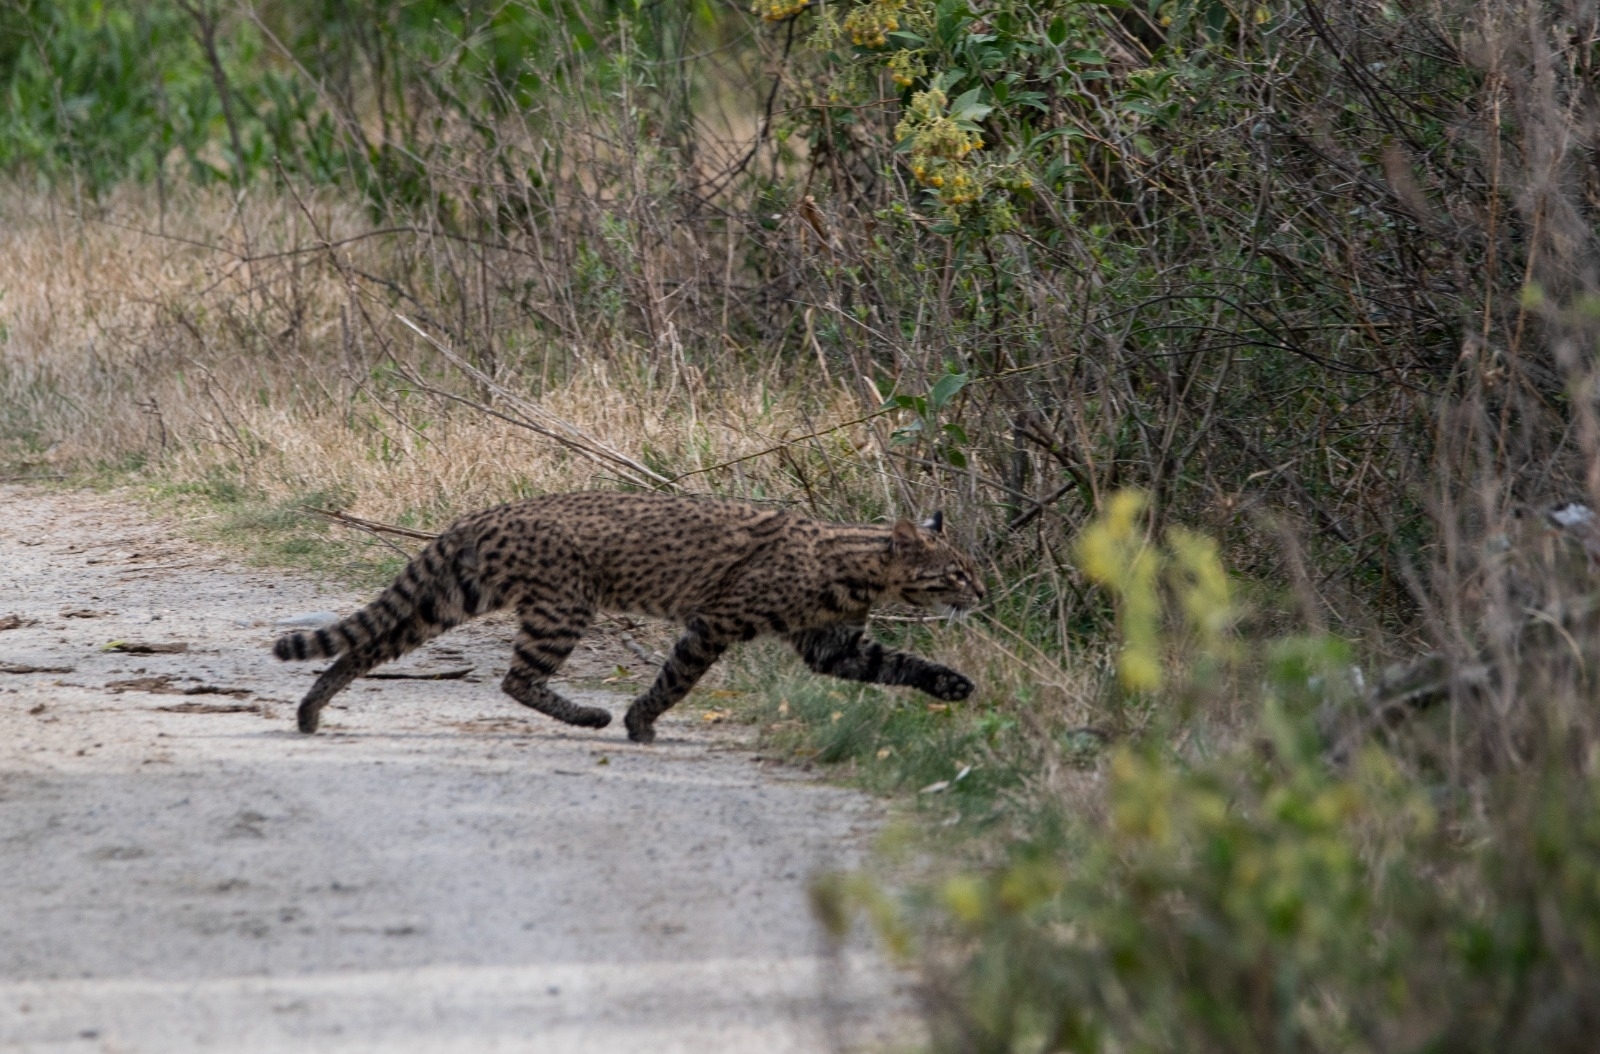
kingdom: Animalia
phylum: Chordata
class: Mammalia
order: Carnivora
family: Felidae
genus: Leopardus
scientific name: Leopardus geoffroyi
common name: Geoffroy's cat
